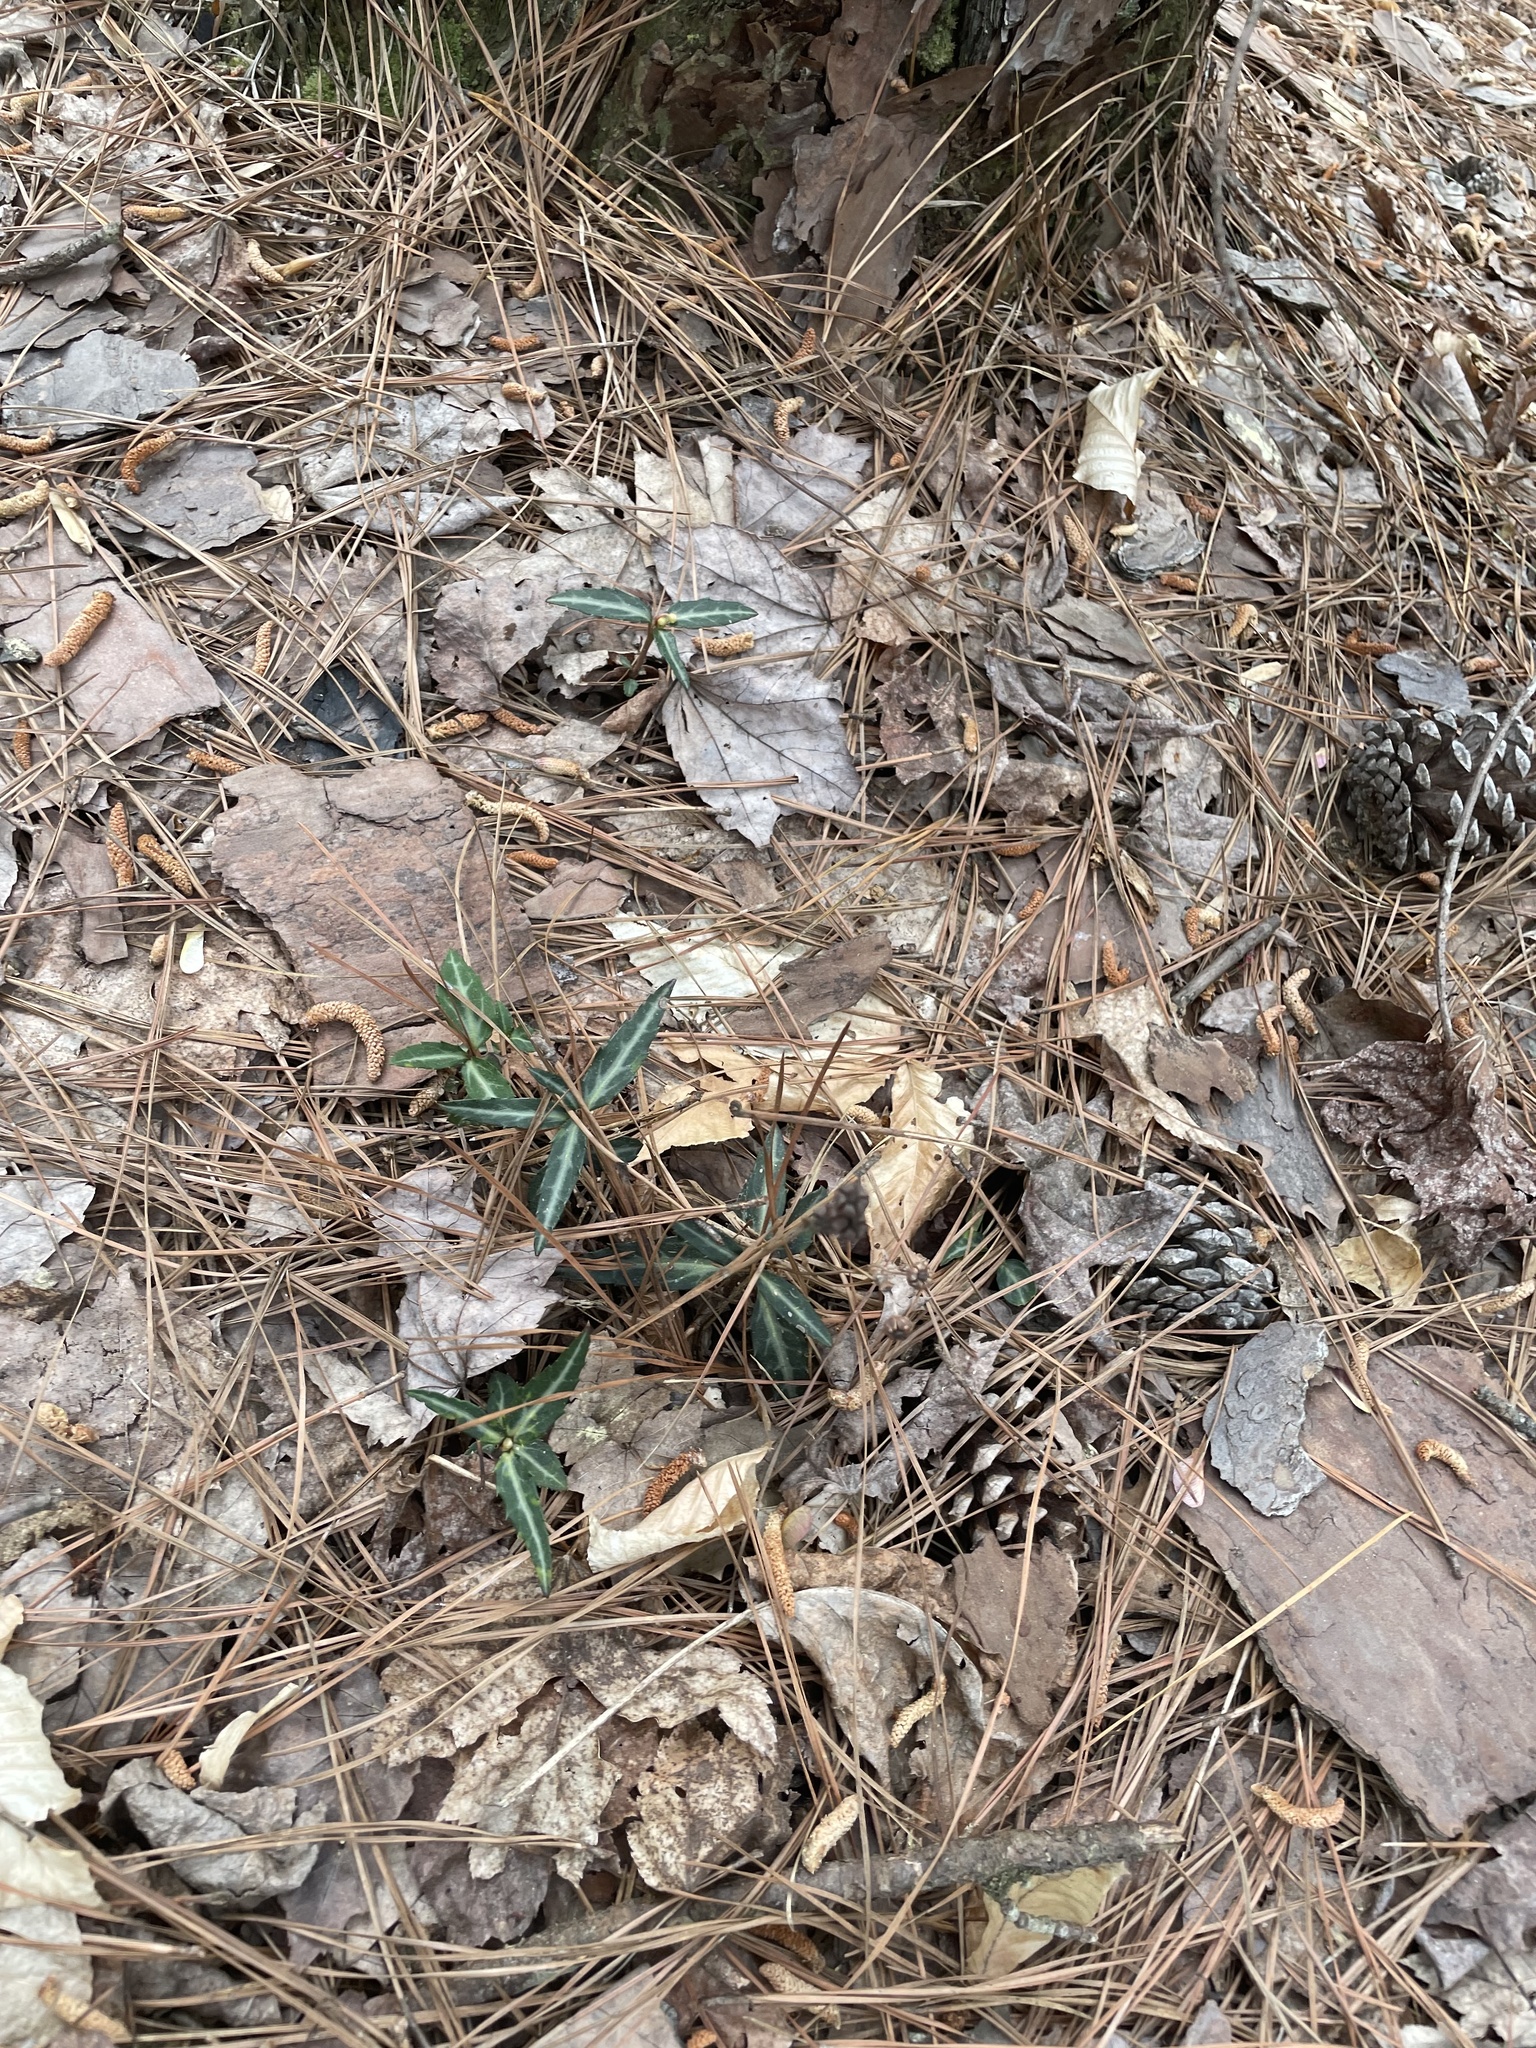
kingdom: Plantae
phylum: Tracheophyta
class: Magnoliopsida
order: Ericales
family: Ericaceae
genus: Chimaphila
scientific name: Chimaphila maculata
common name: Spotted pipsissewa
